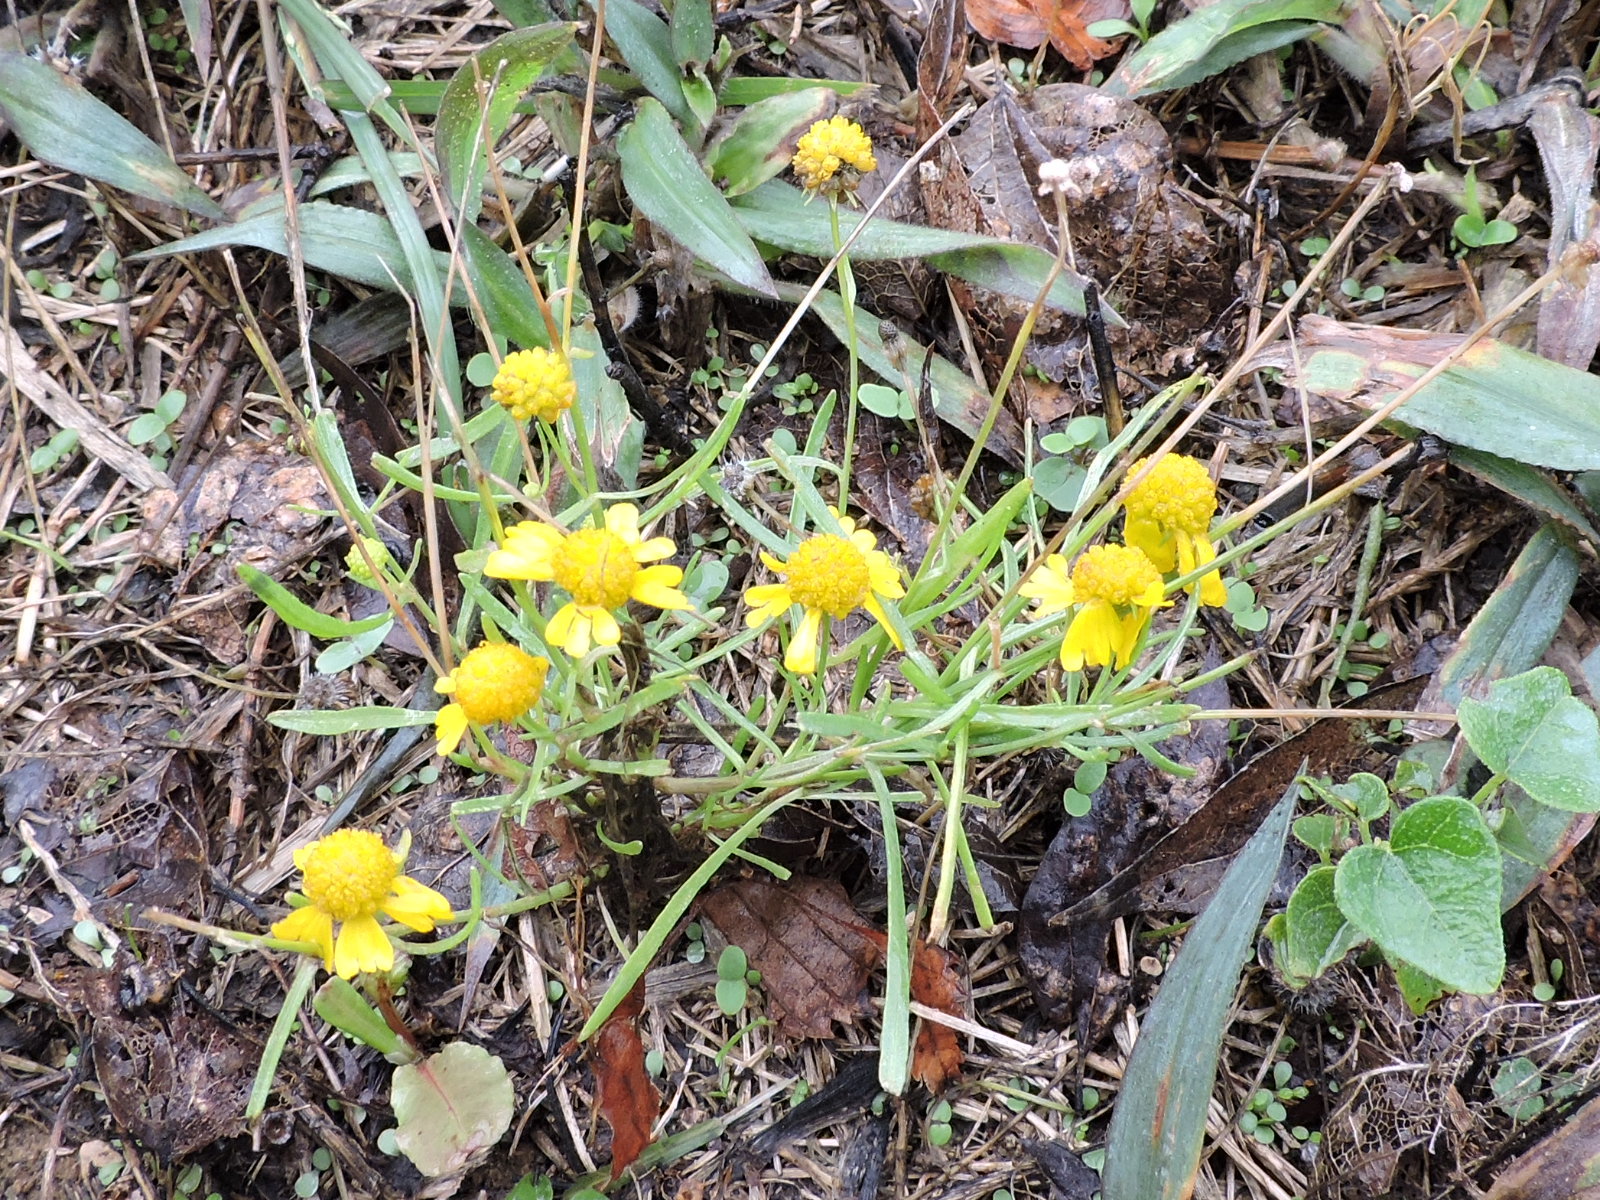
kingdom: Plantae
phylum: Tracheophyta
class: Magnoliopsida
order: Asterales
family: Asteraceae
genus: Helenium
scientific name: Helenium amarum
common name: Bitter sneezeweed
